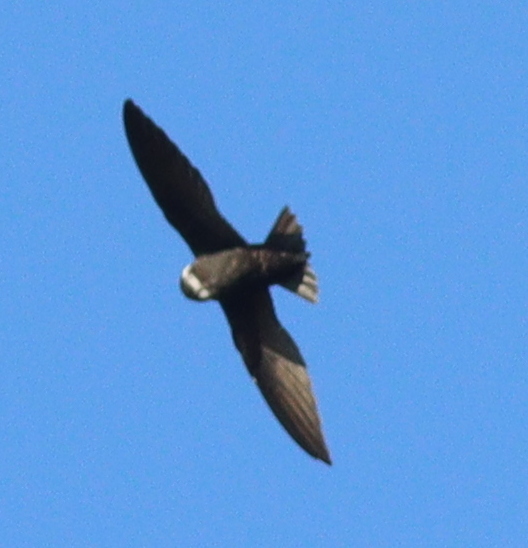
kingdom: Animalia
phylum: Chordata
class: Aves
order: Apodiformes
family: Apodidae
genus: Streptoprocne
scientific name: Streptoprocne zonaris
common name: White-collared swift
